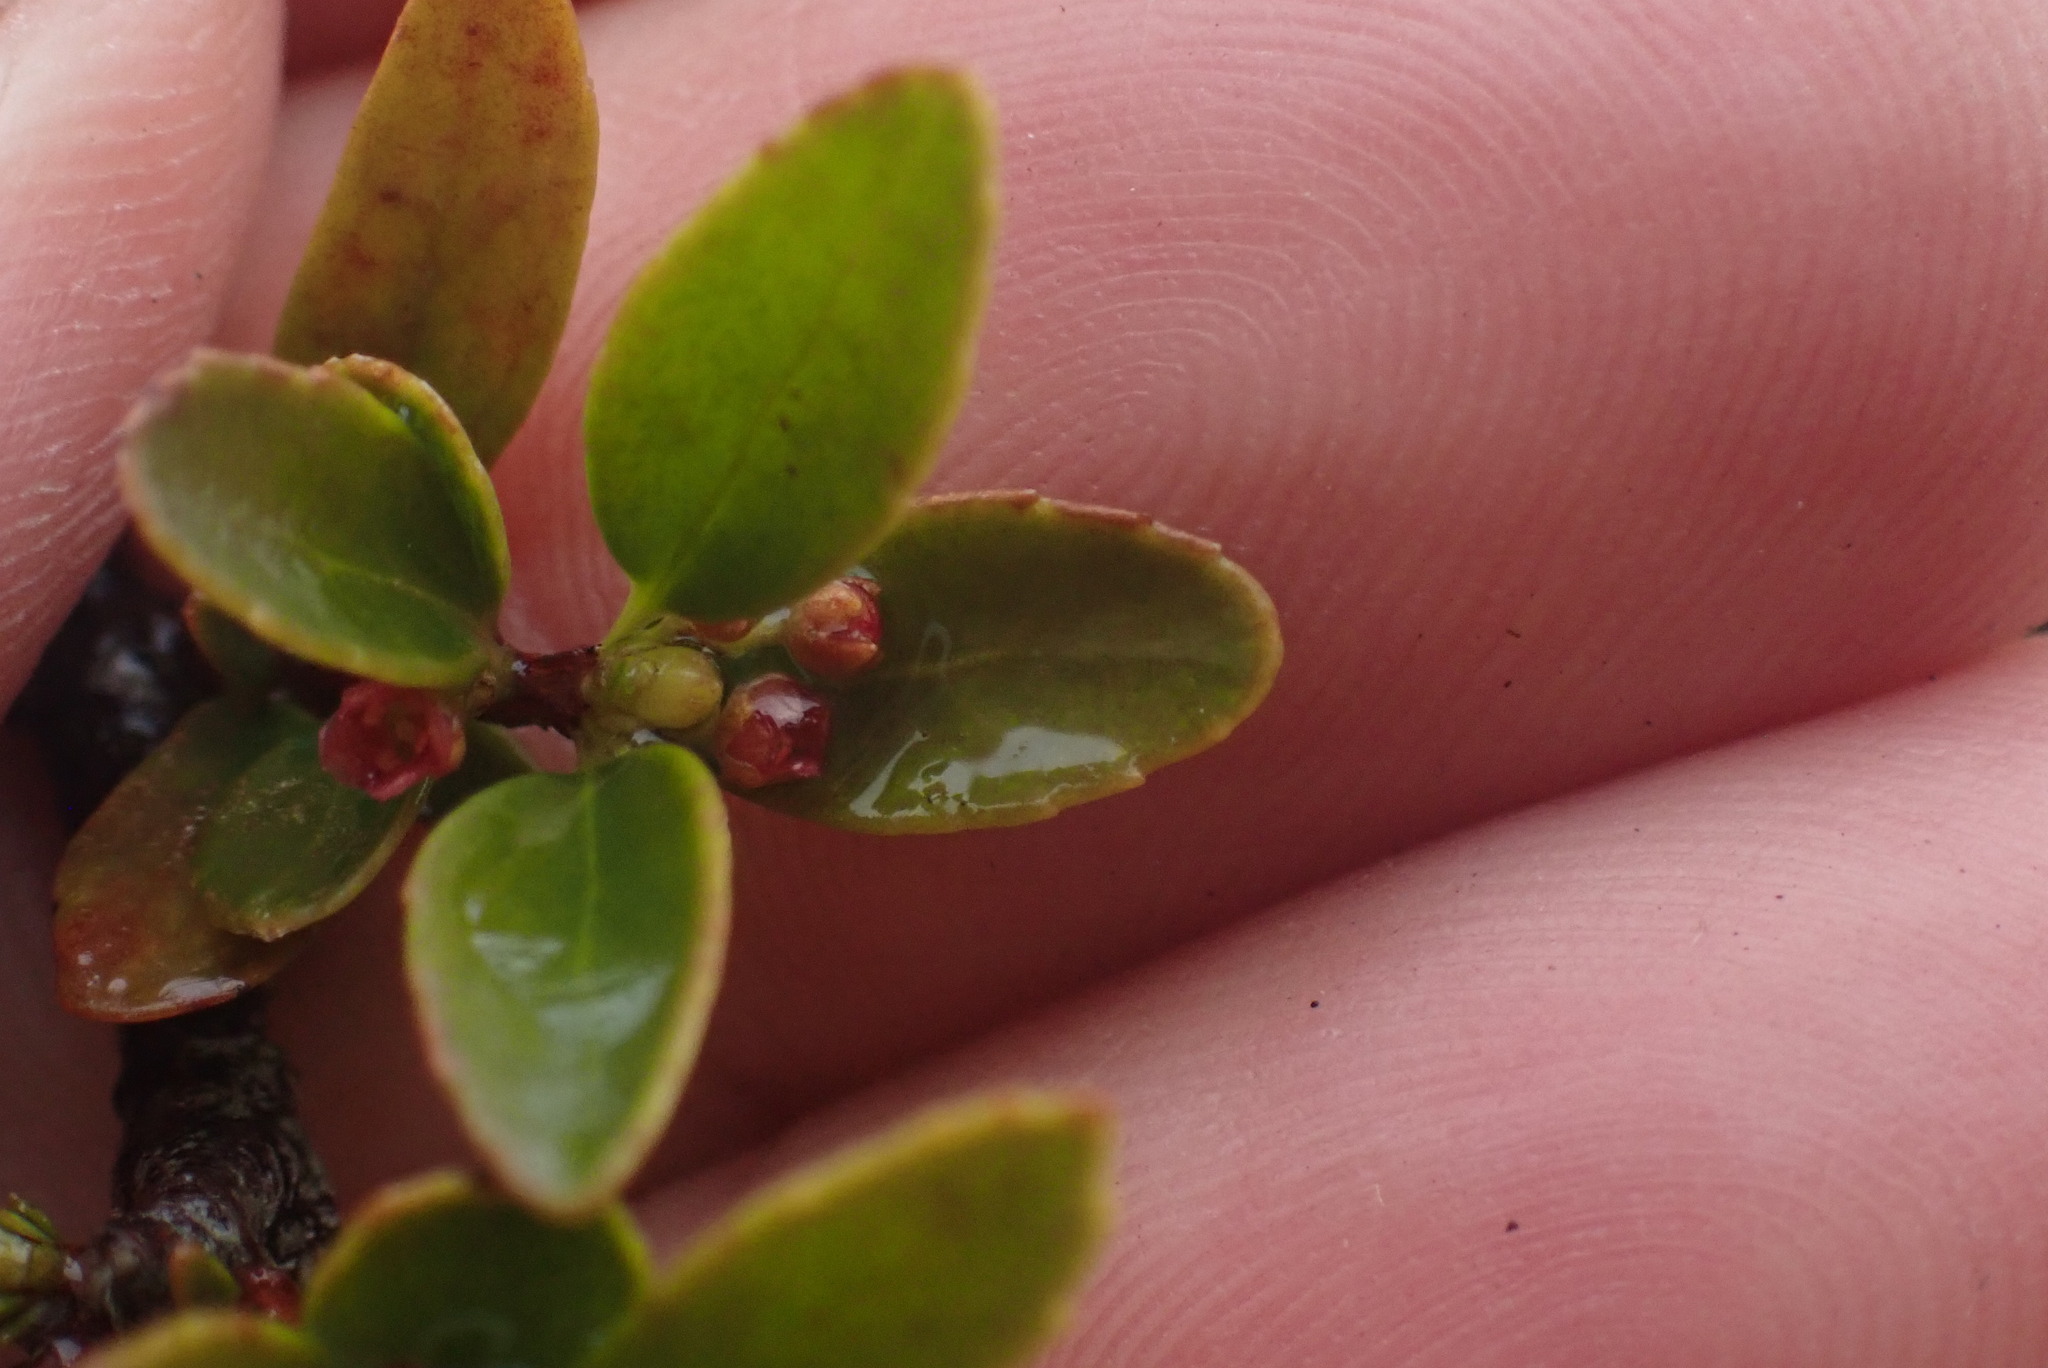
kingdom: Plantae
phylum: Tracheophyta
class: Magnoliopsida
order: Celastrales
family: Celastraceae
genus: Paxistima
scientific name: Paxistima myrsinites
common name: Mountain-lover
